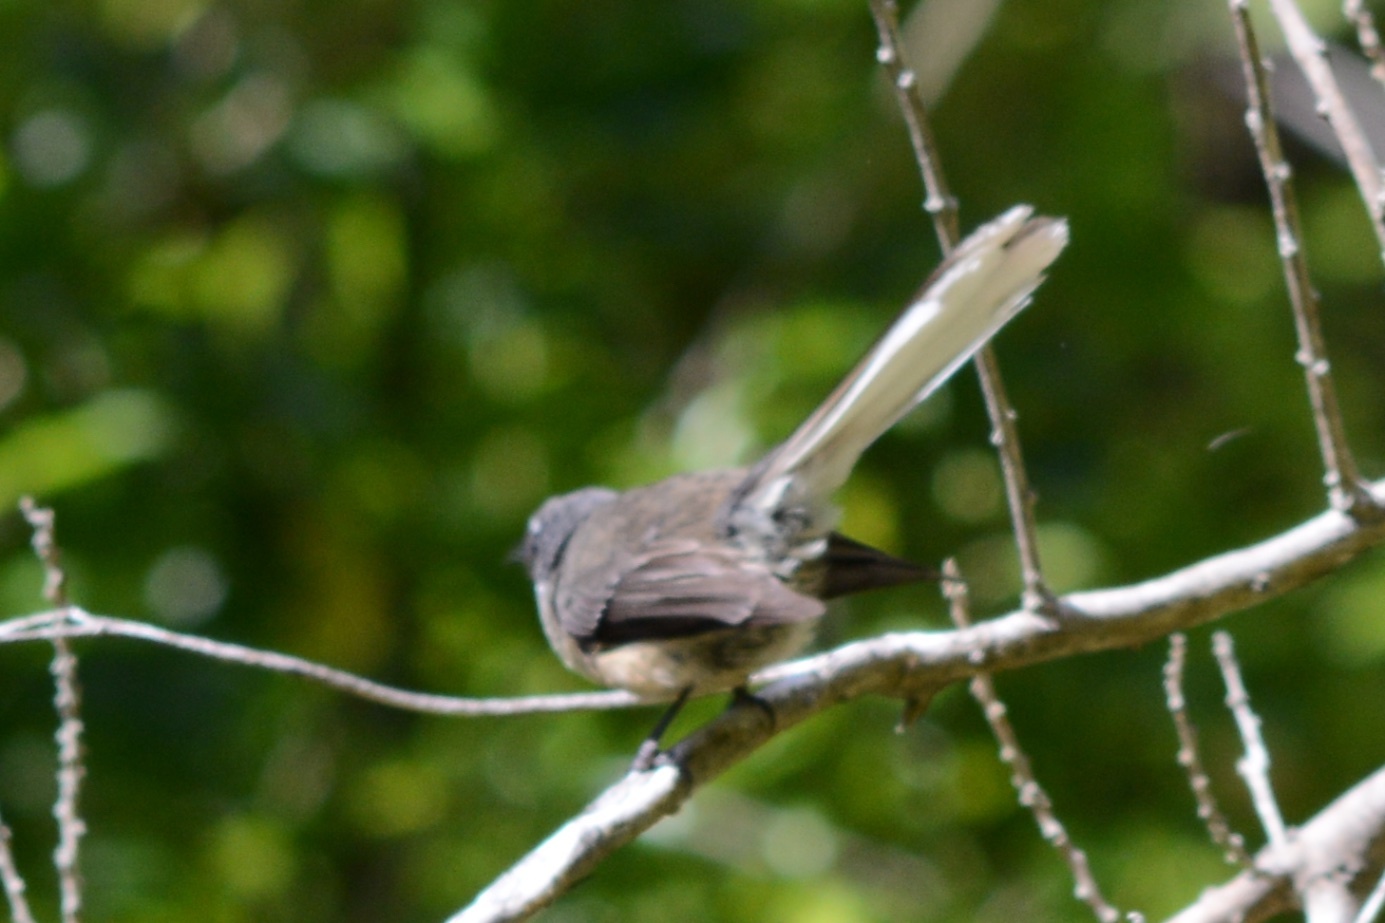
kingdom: Animalia
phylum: Chordata
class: Aves
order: Passeriformes
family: Rhipiduridae
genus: Rhipidura
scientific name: Rhipidura fuliginosa
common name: New zealand fantail
